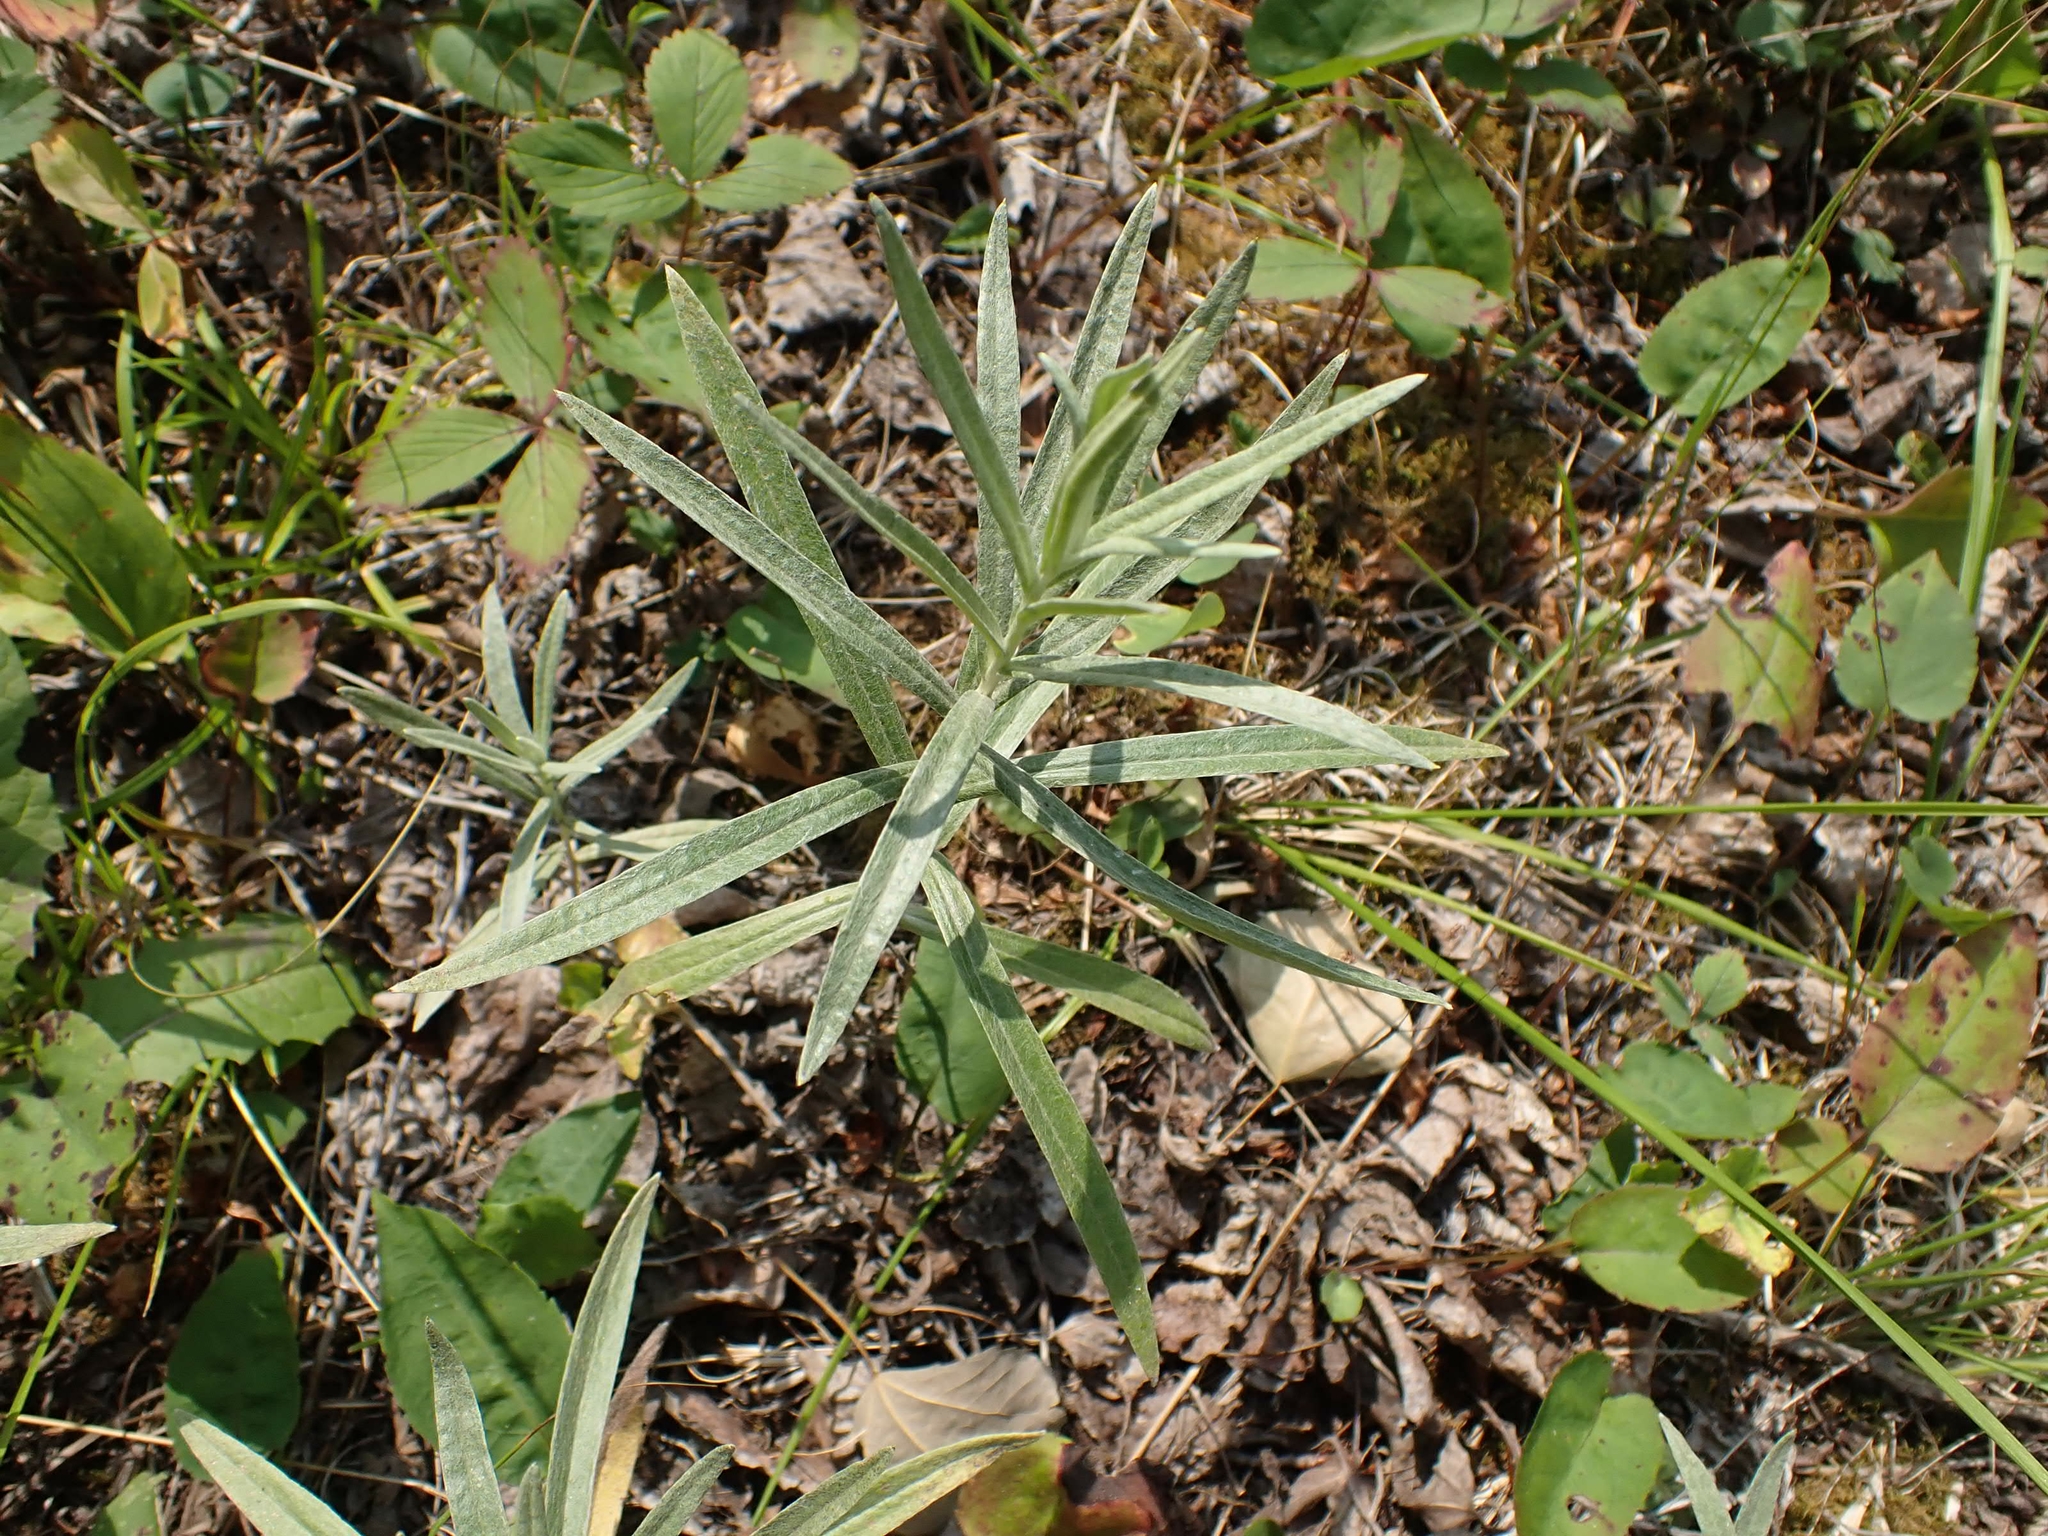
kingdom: Plantae
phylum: Tracheophyta
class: Magnoliopsida
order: Asterales
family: Asteraceae
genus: Anaphalis
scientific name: Anaphalis margaritacea
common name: Pearly everlasting
